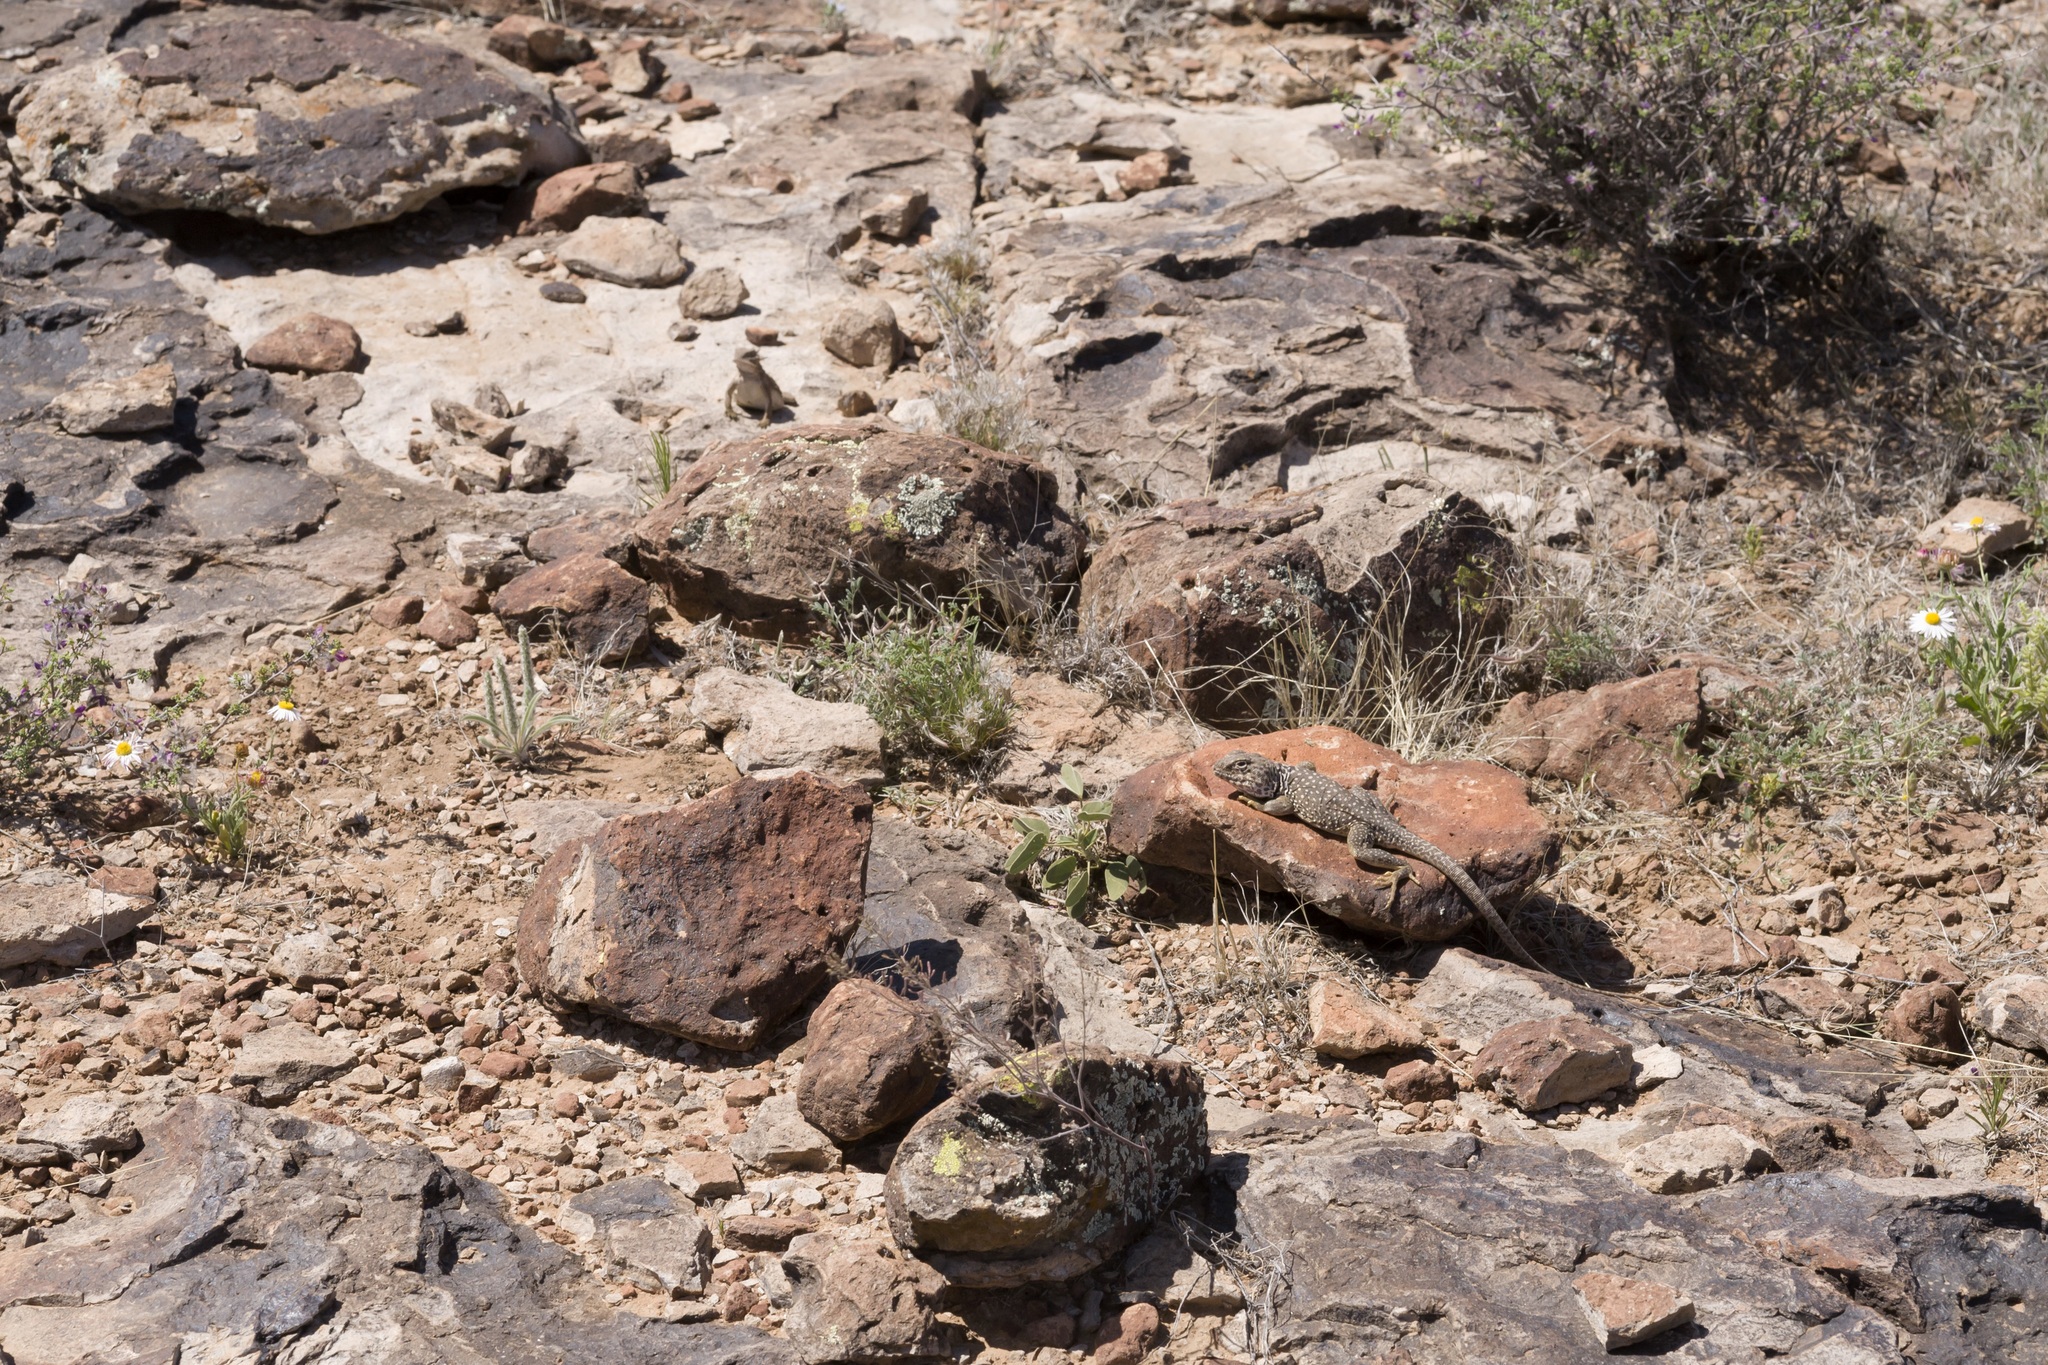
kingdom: Animalia
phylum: Chordata
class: Squamata
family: Crotaphytidae
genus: Crotaphytus
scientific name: Crotaphytus collaris
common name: Collared lizard
